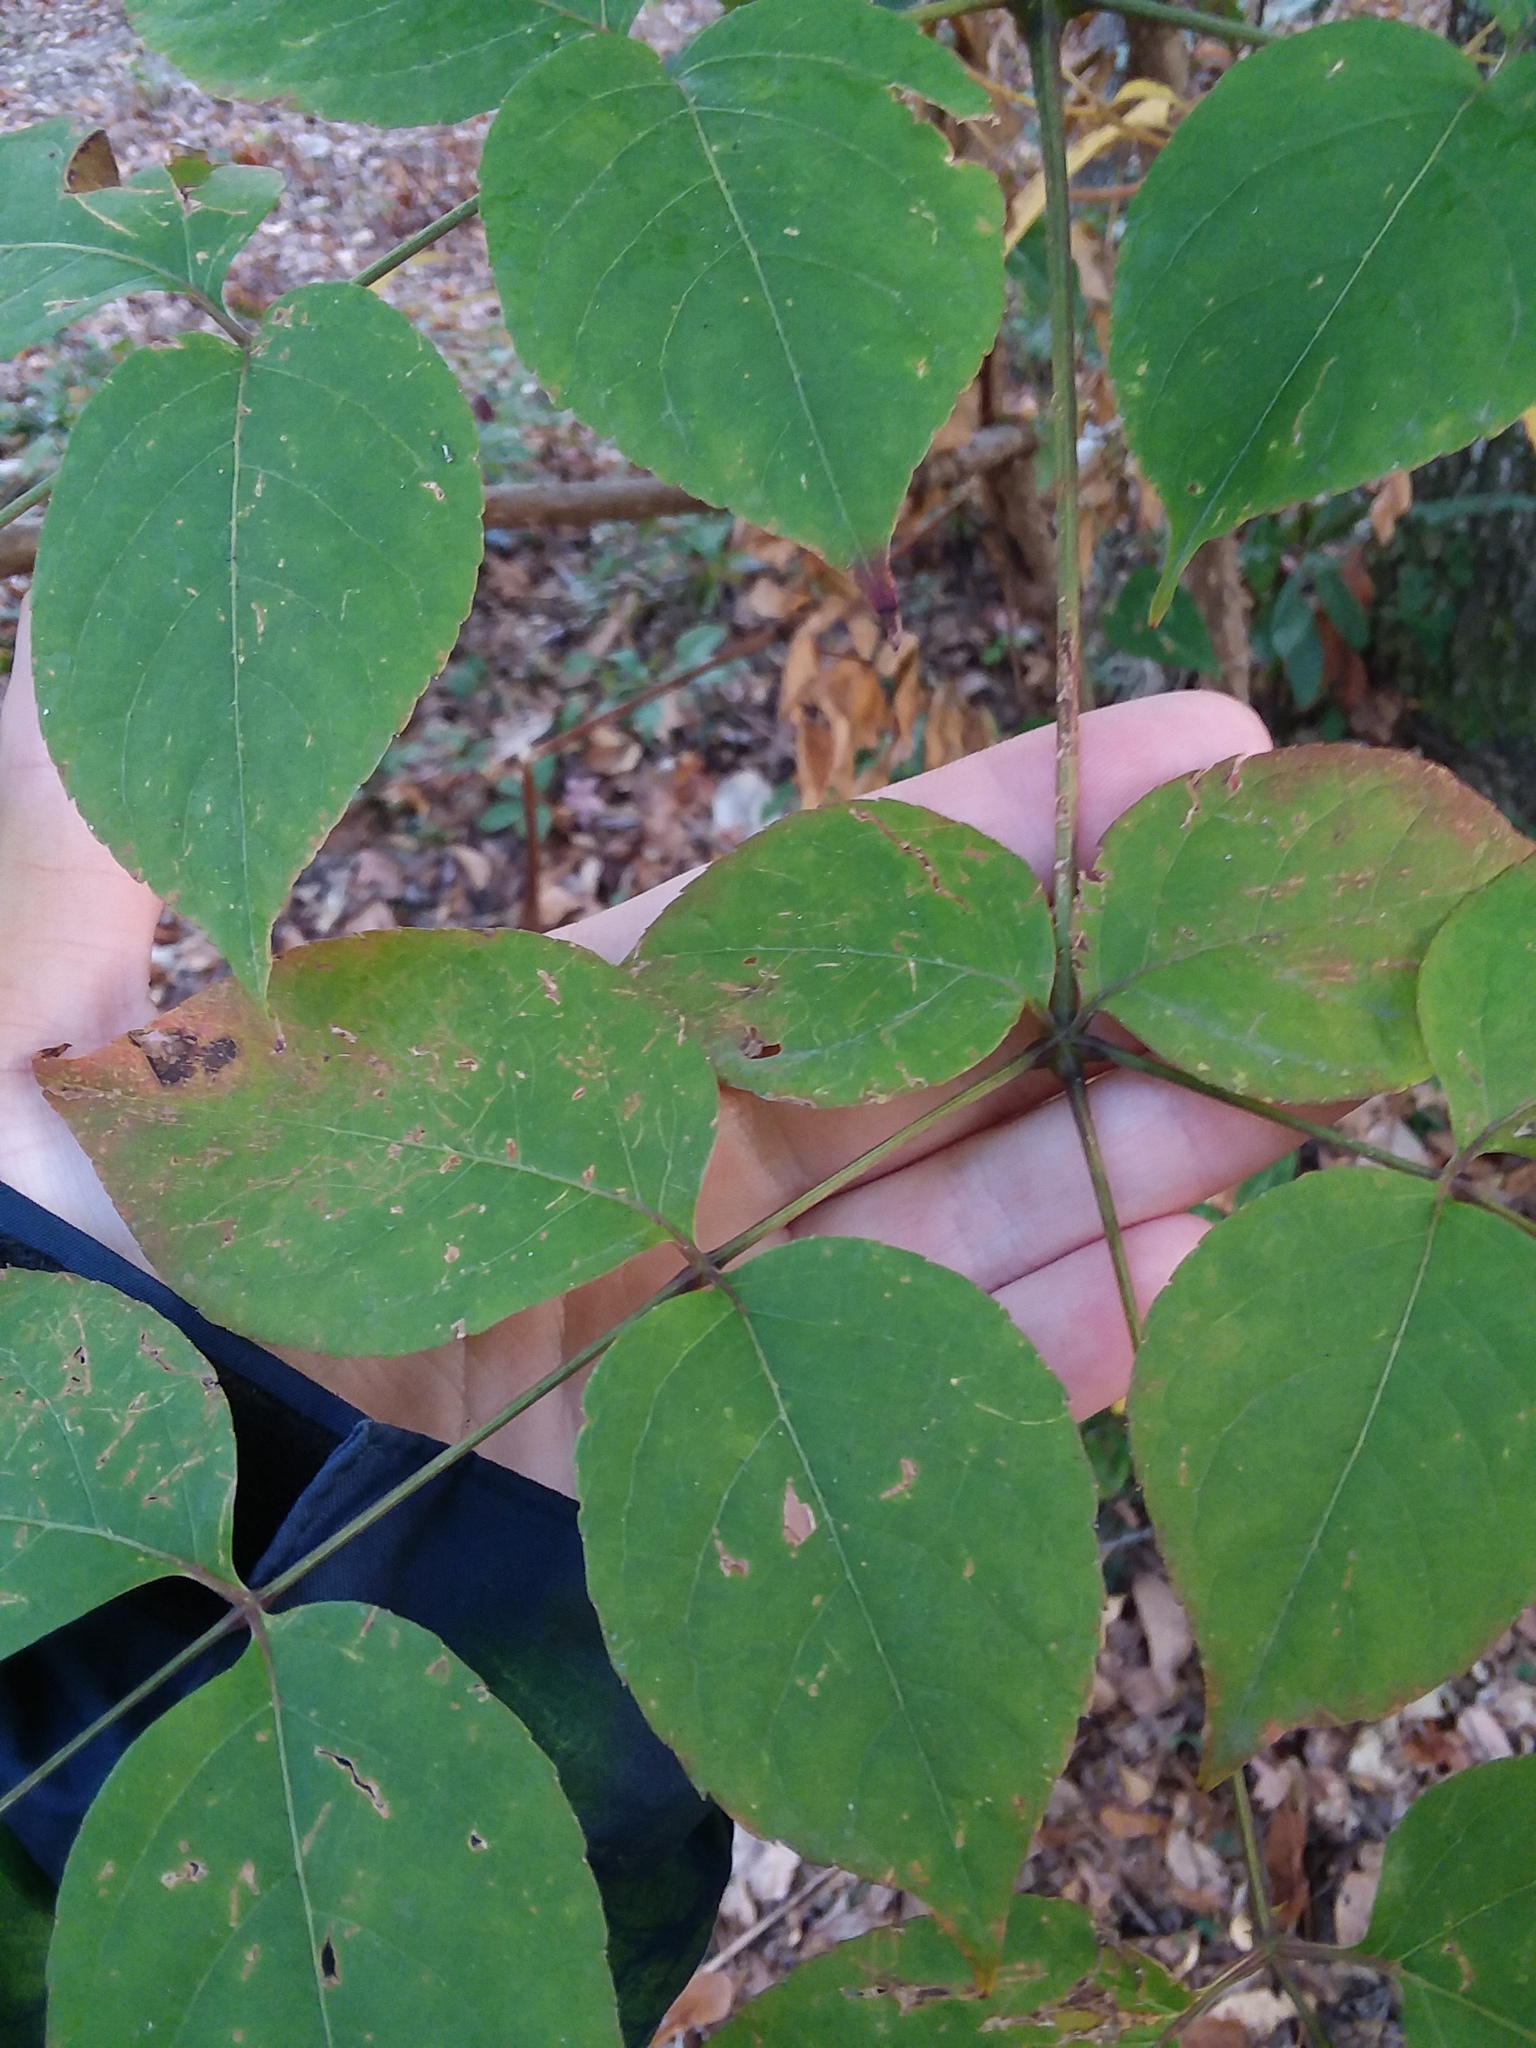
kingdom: Plantae
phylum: Tracheophyta
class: Magnoliopsida
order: Apiales
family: Araliaceae
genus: Aralia
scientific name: Aralia spinosa
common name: Hercules'-club
